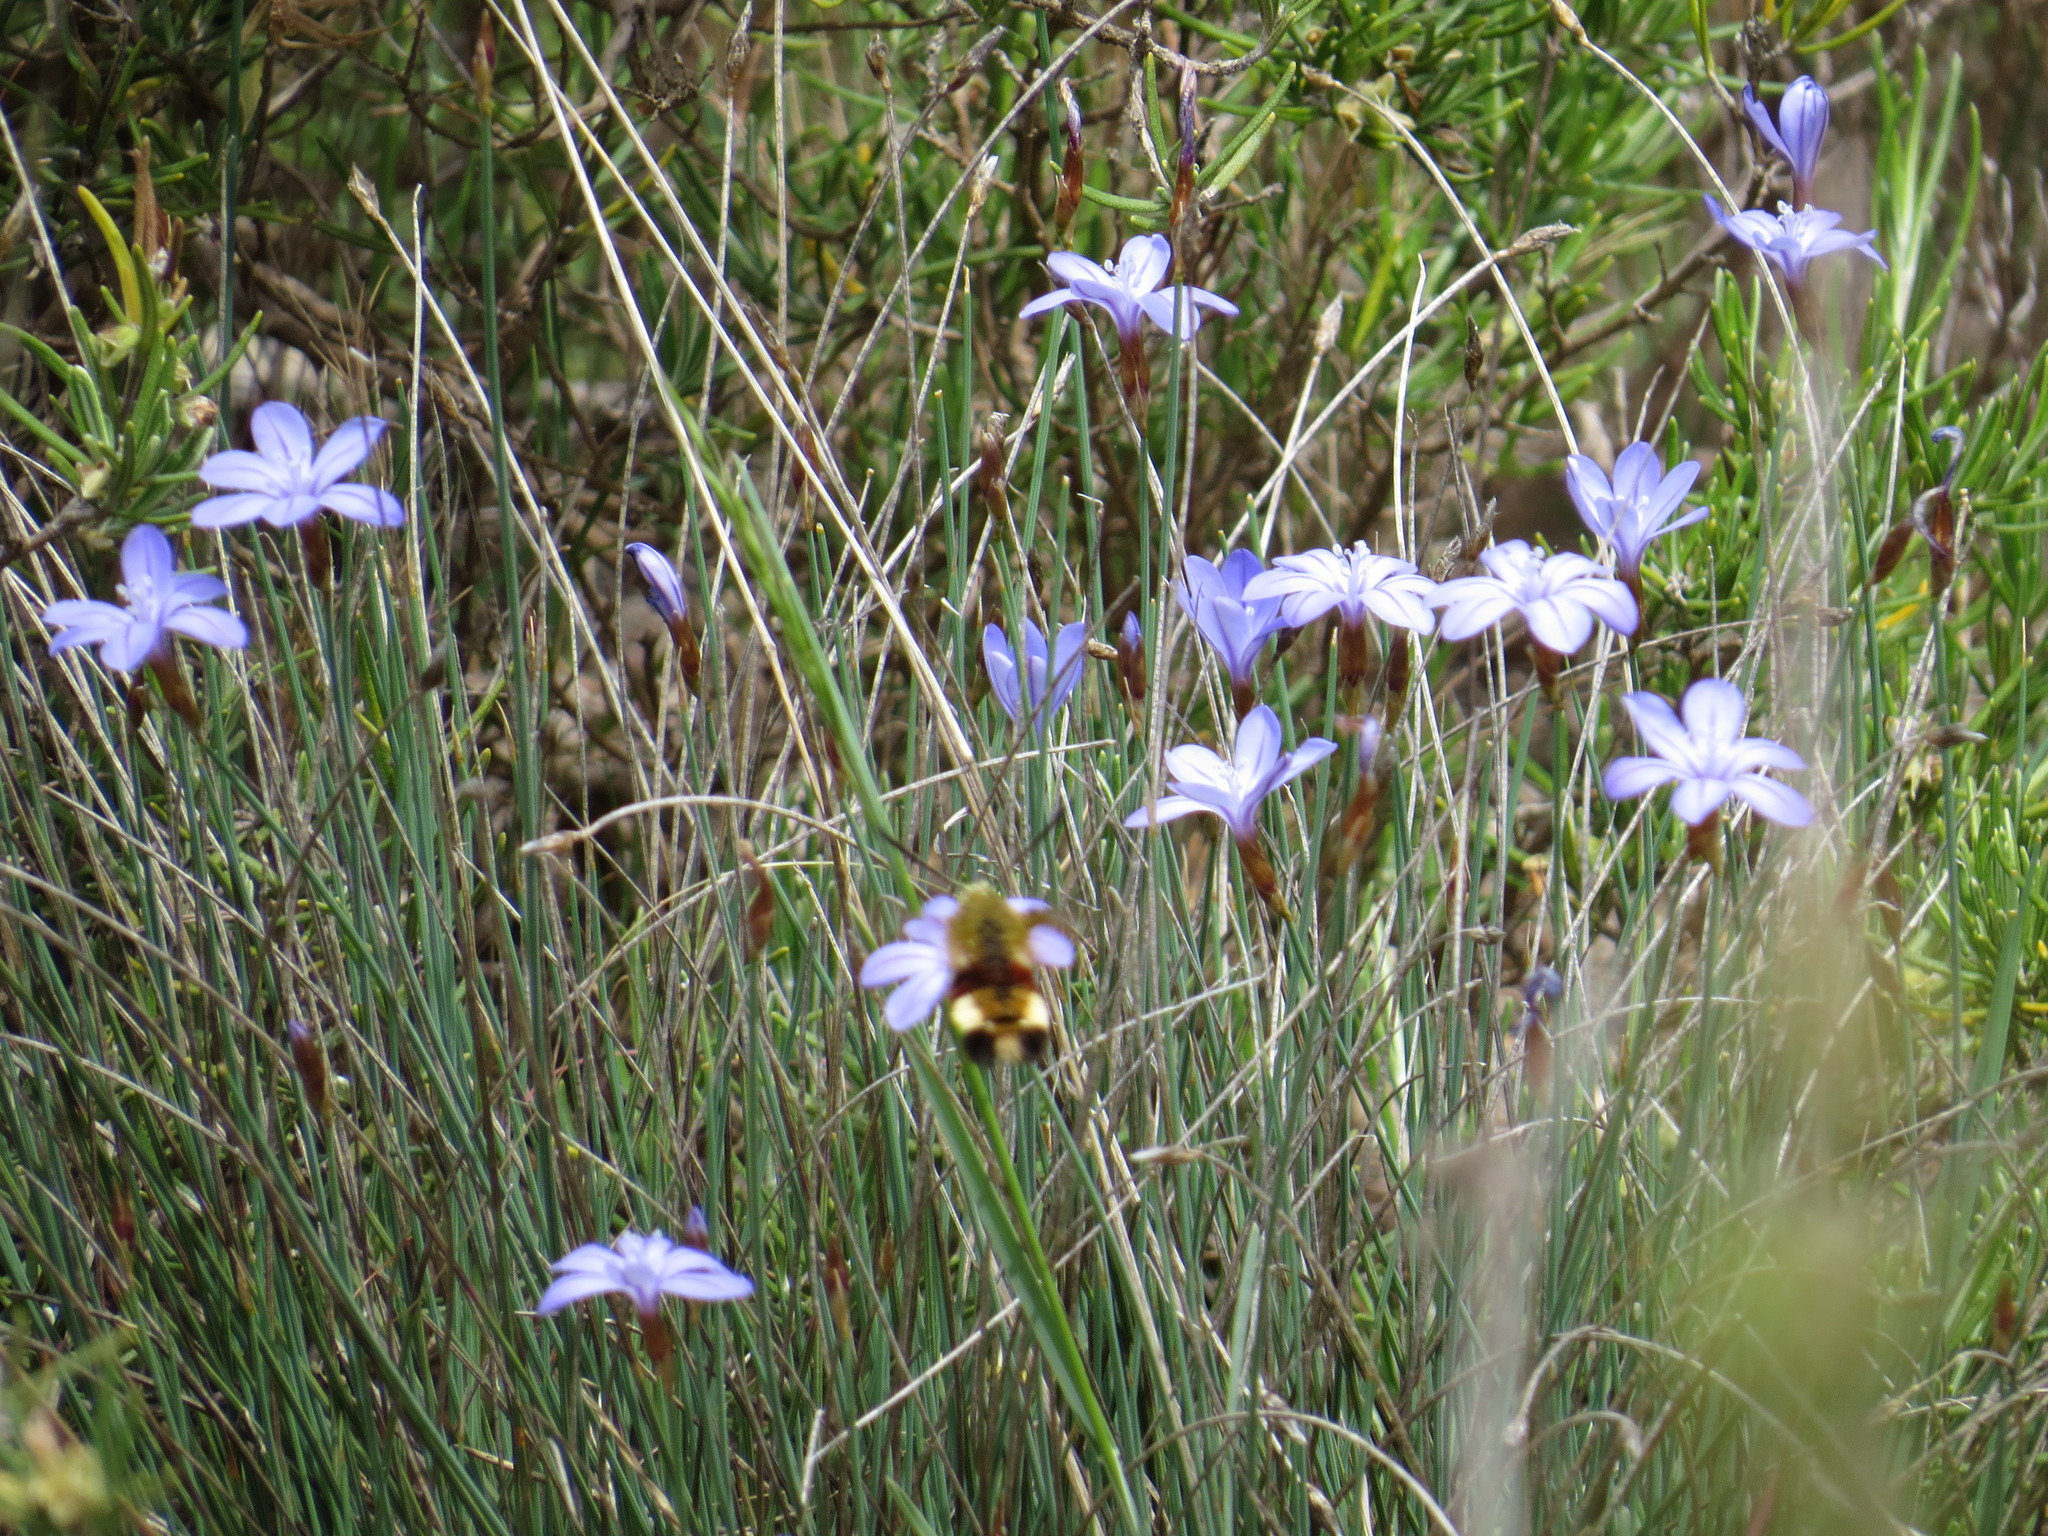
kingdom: Animalia
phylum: Arthropoda
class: Insecta
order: Lepidoptera
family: Sphingidae
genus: Hemaris
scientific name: Hemaris fuciformis
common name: Broad-bordered bee hawk-moth
